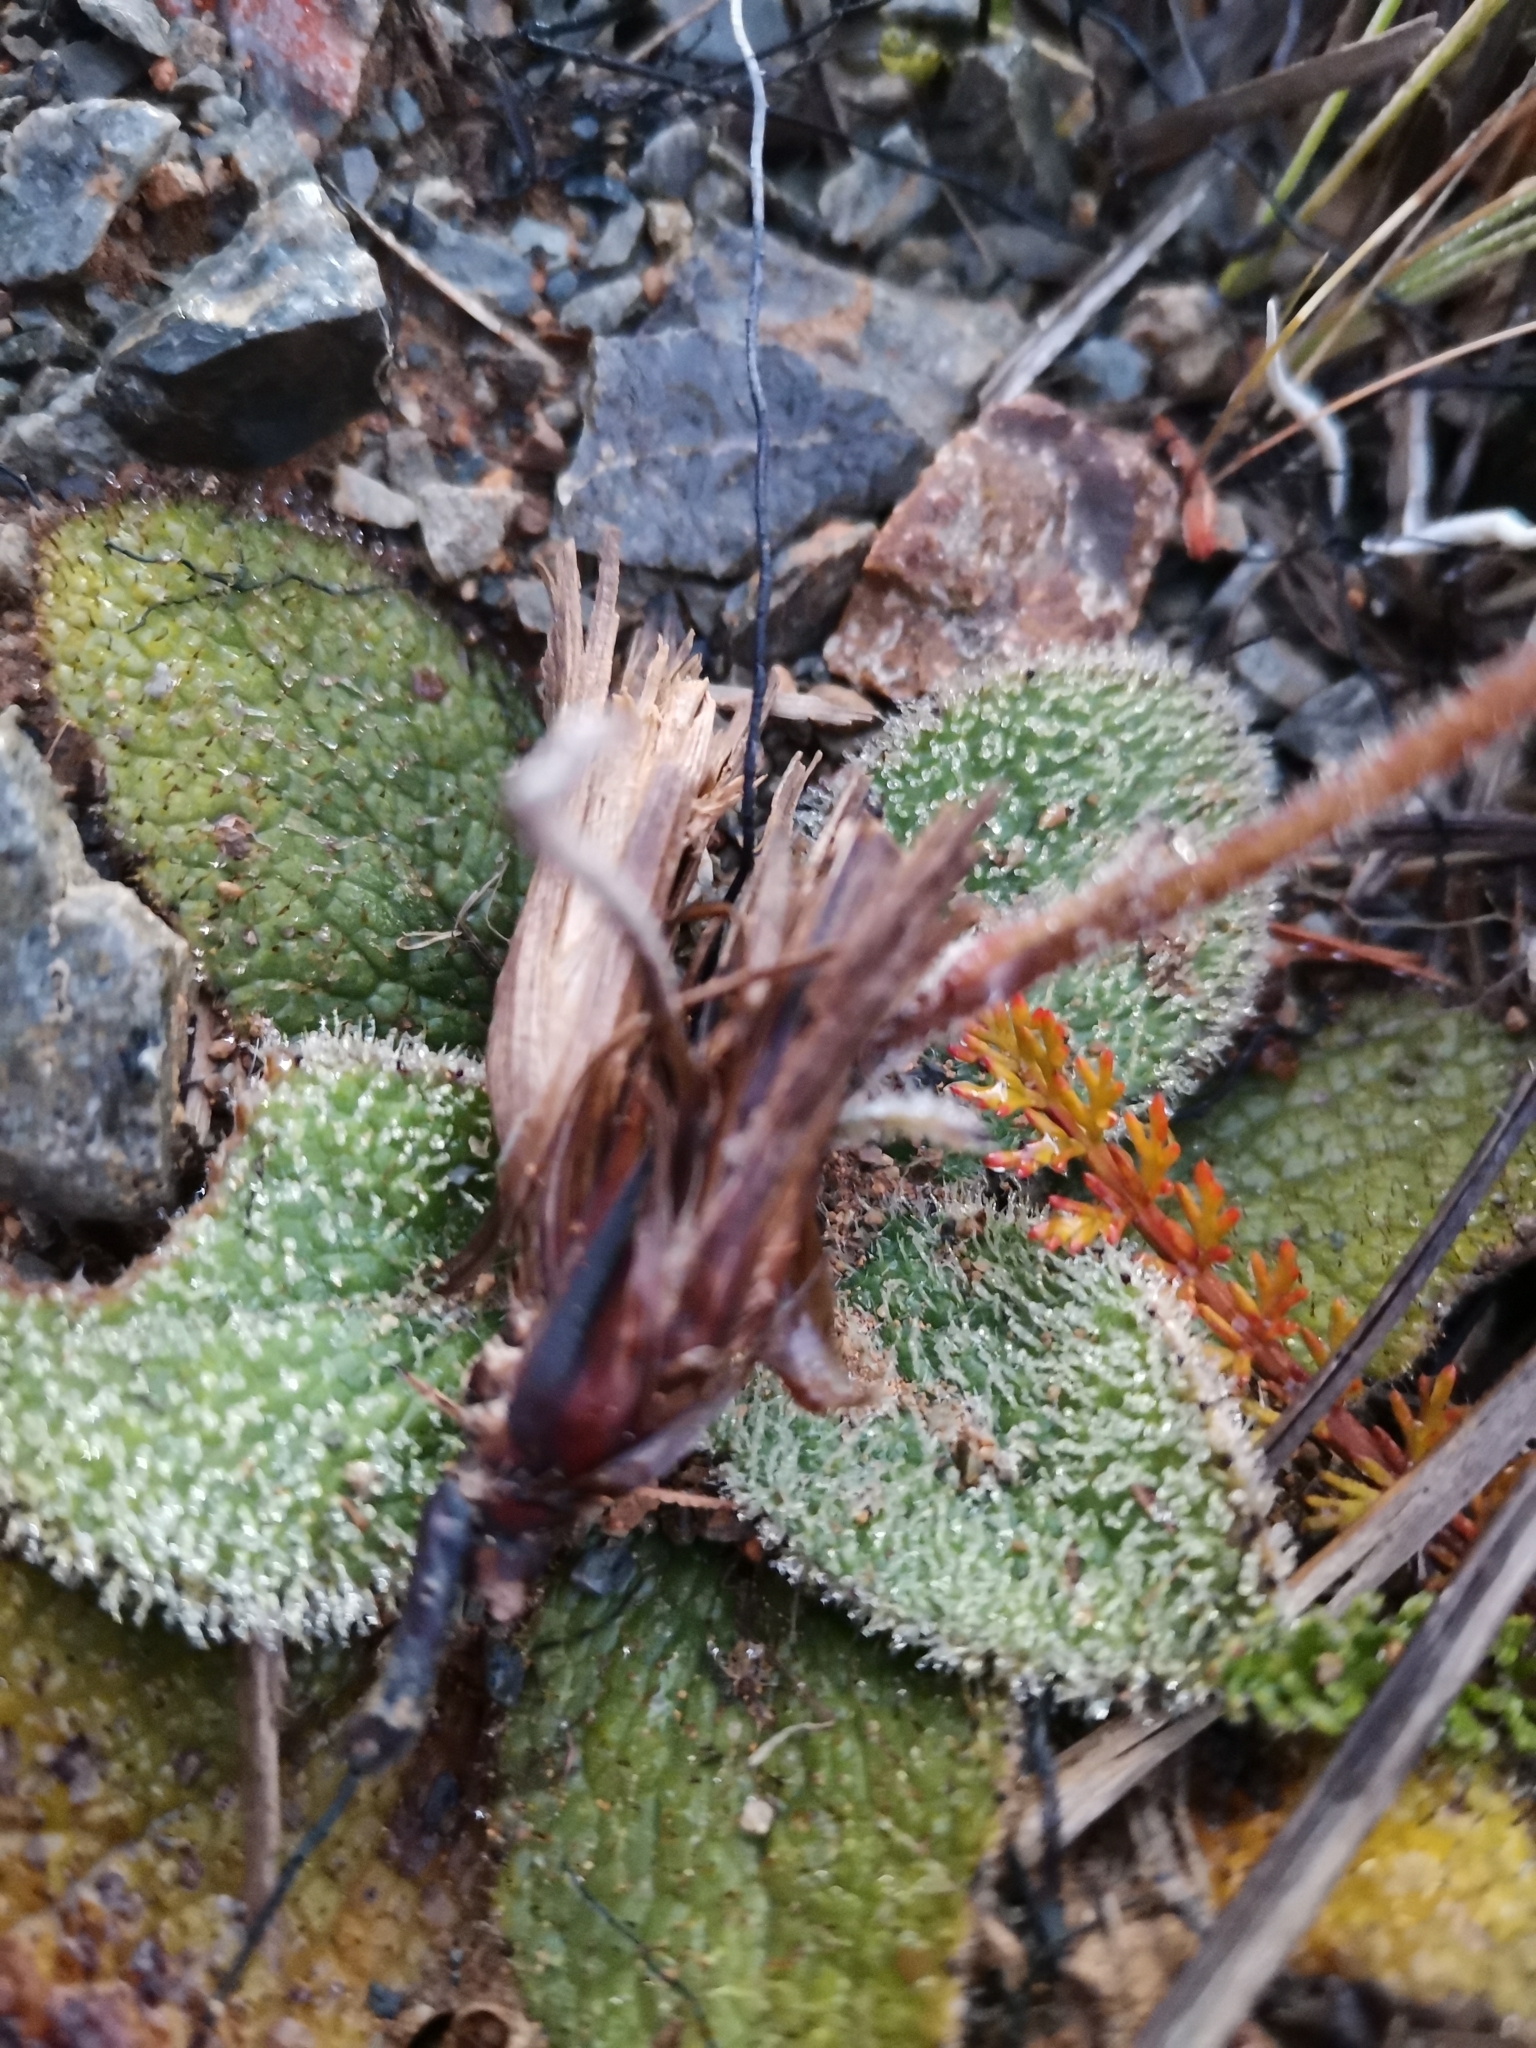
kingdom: Plantae
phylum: Tracheophyta
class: Magnoliopsida
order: Asterales
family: Asteraceae
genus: Brachyglottis
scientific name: Brachyglottis bellidioides
